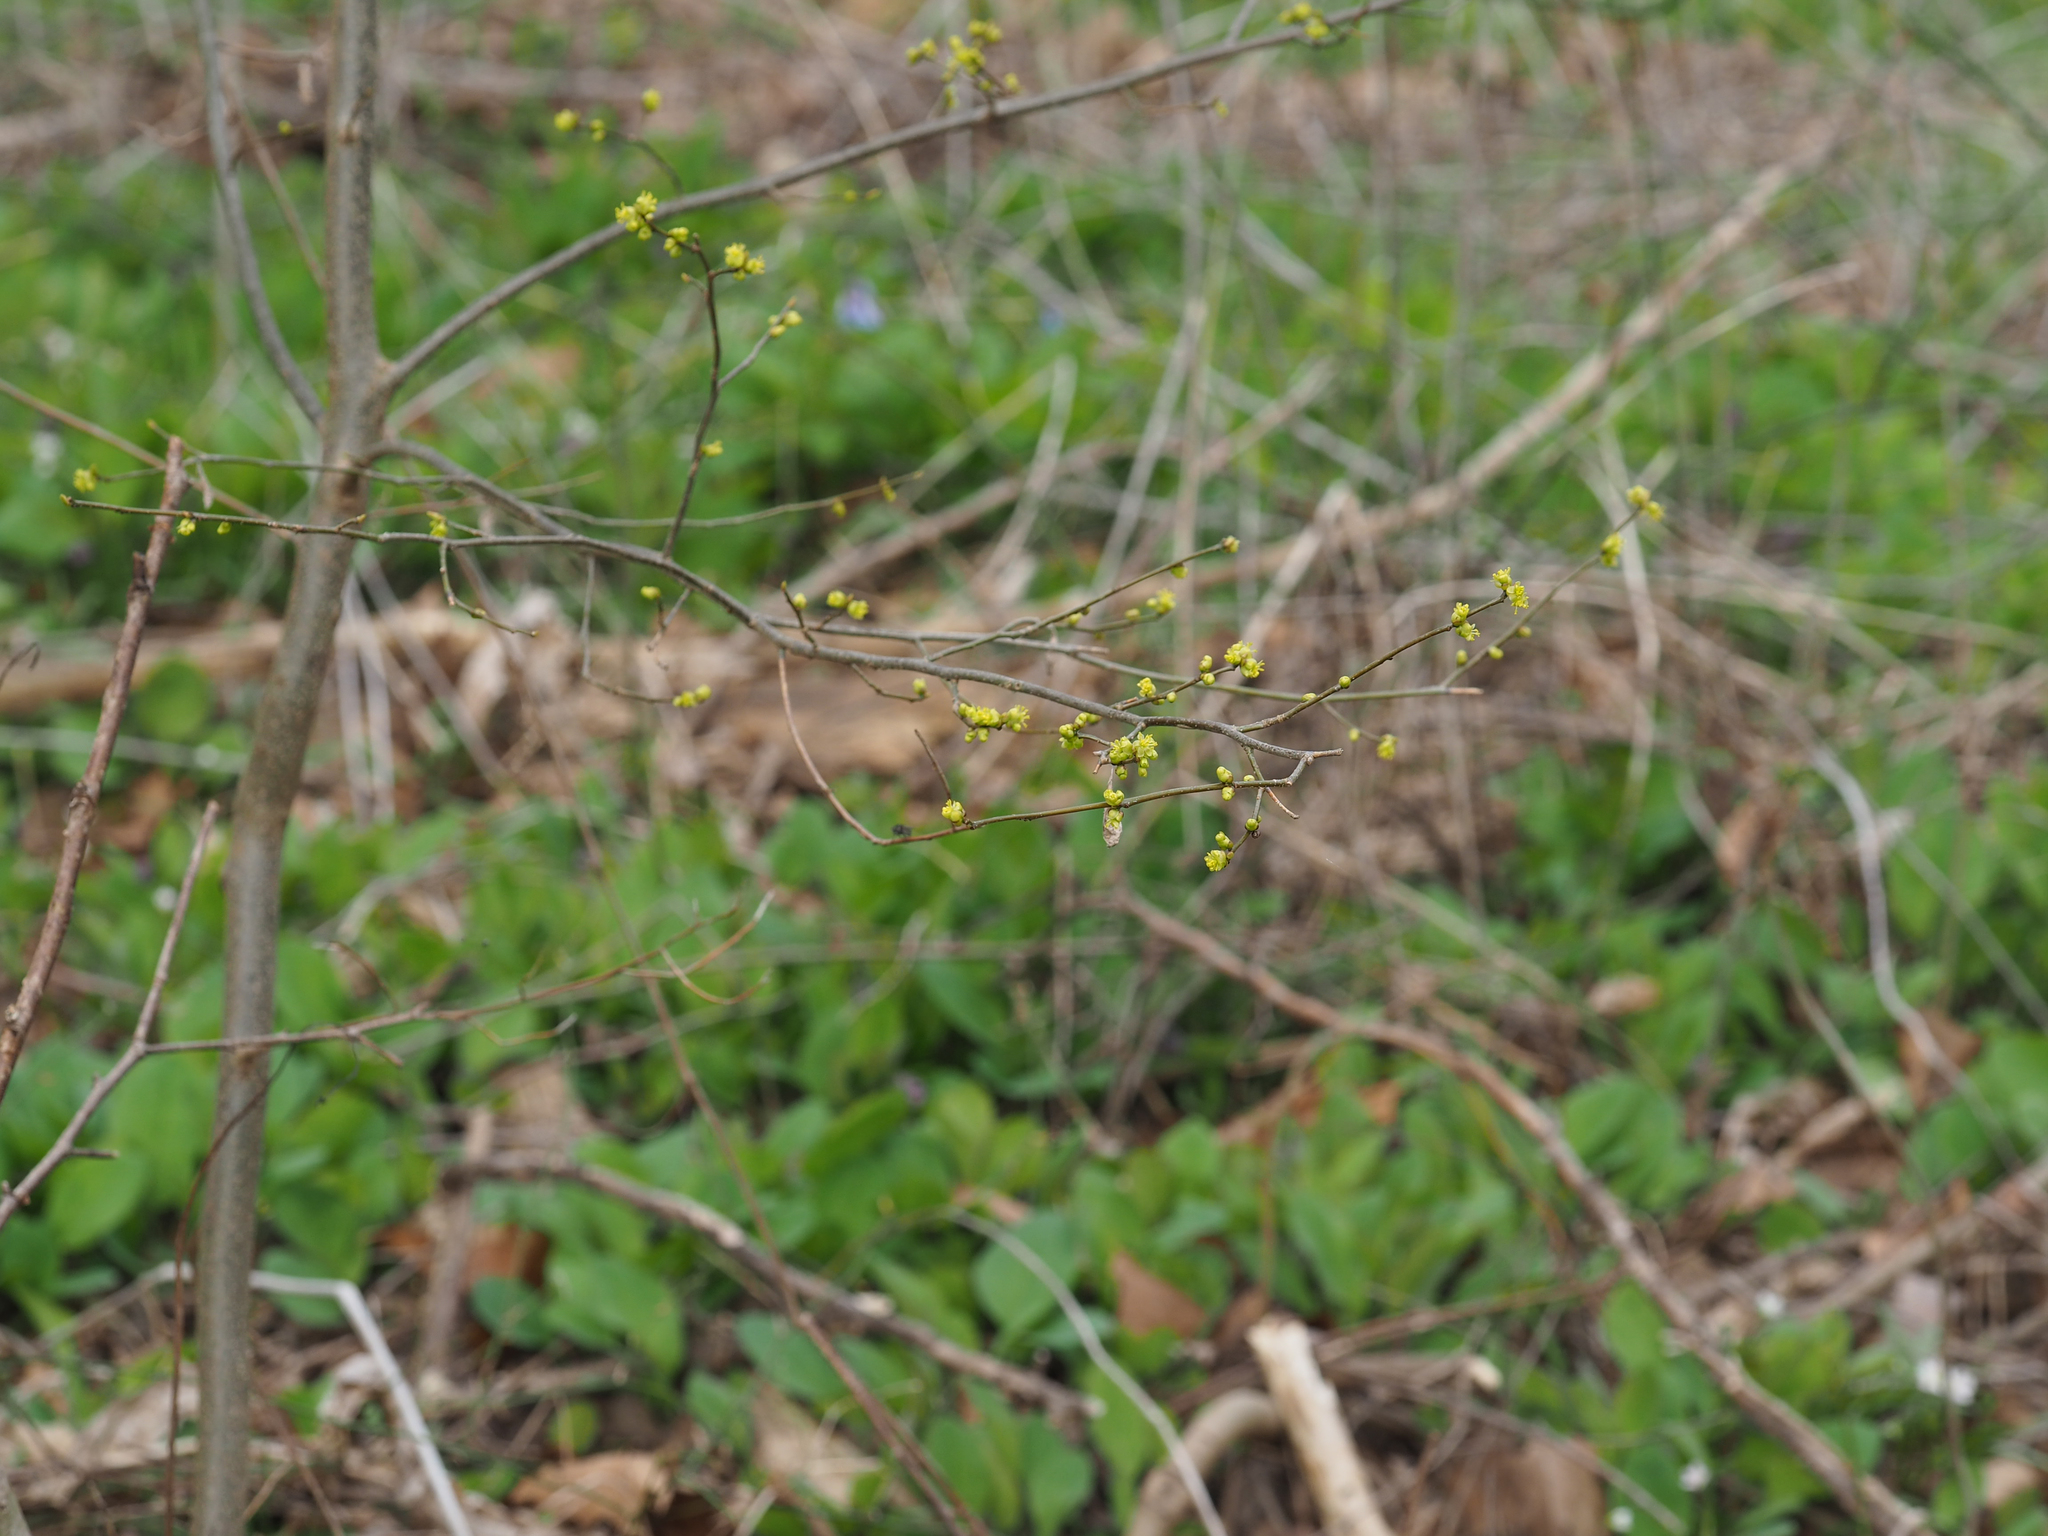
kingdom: Plantae
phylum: Tracheophyta
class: Magnoliopsida
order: Laurales
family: Lauraceae
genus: Lindera
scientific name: Lindera benzoin
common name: Spicebush
